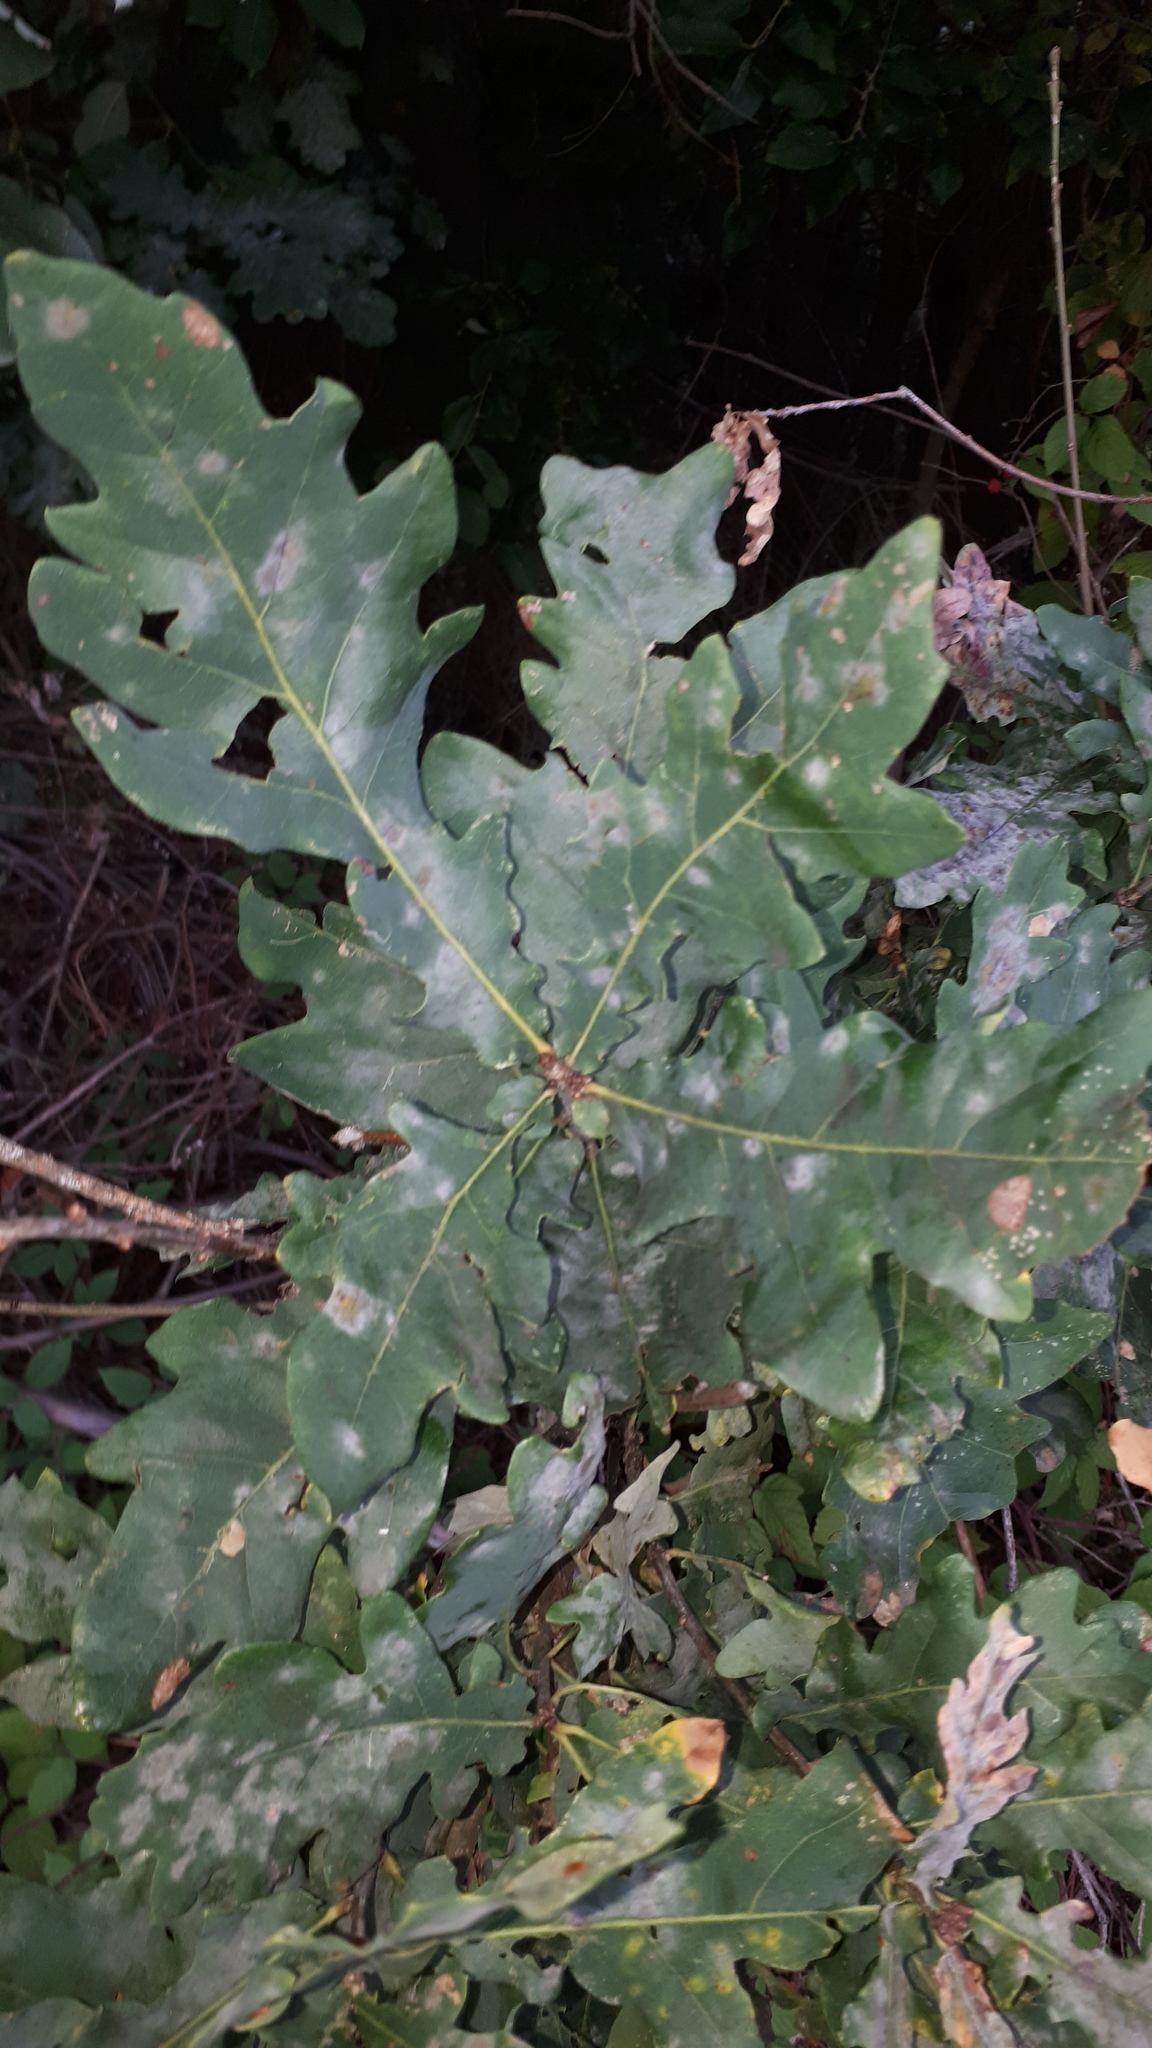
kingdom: Plantae
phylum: Tracheophyta
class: Magnoliopsida
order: Fagales
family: Fagaceae
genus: Quercus
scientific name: Quercus robur
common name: Pedunculate oak
